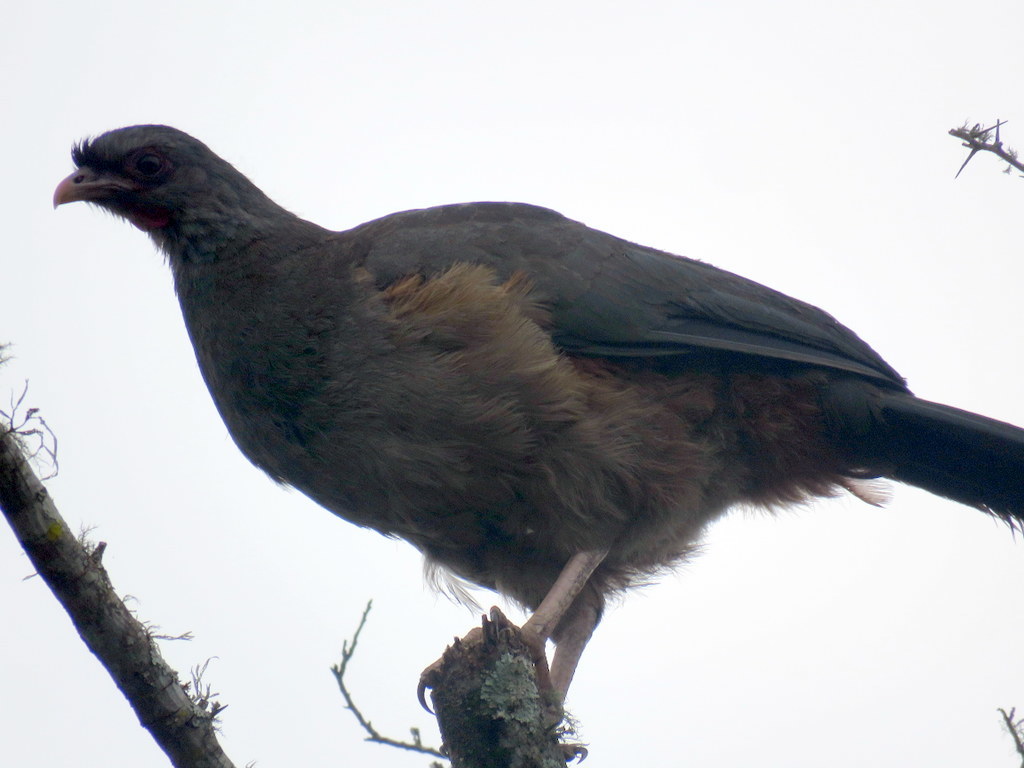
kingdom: Animalia
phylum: Chordata
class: Aves
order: Galliformes
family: Cracidae
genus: Ortalis
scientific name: Ortalis canicollis
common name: Chaco chachalaca
